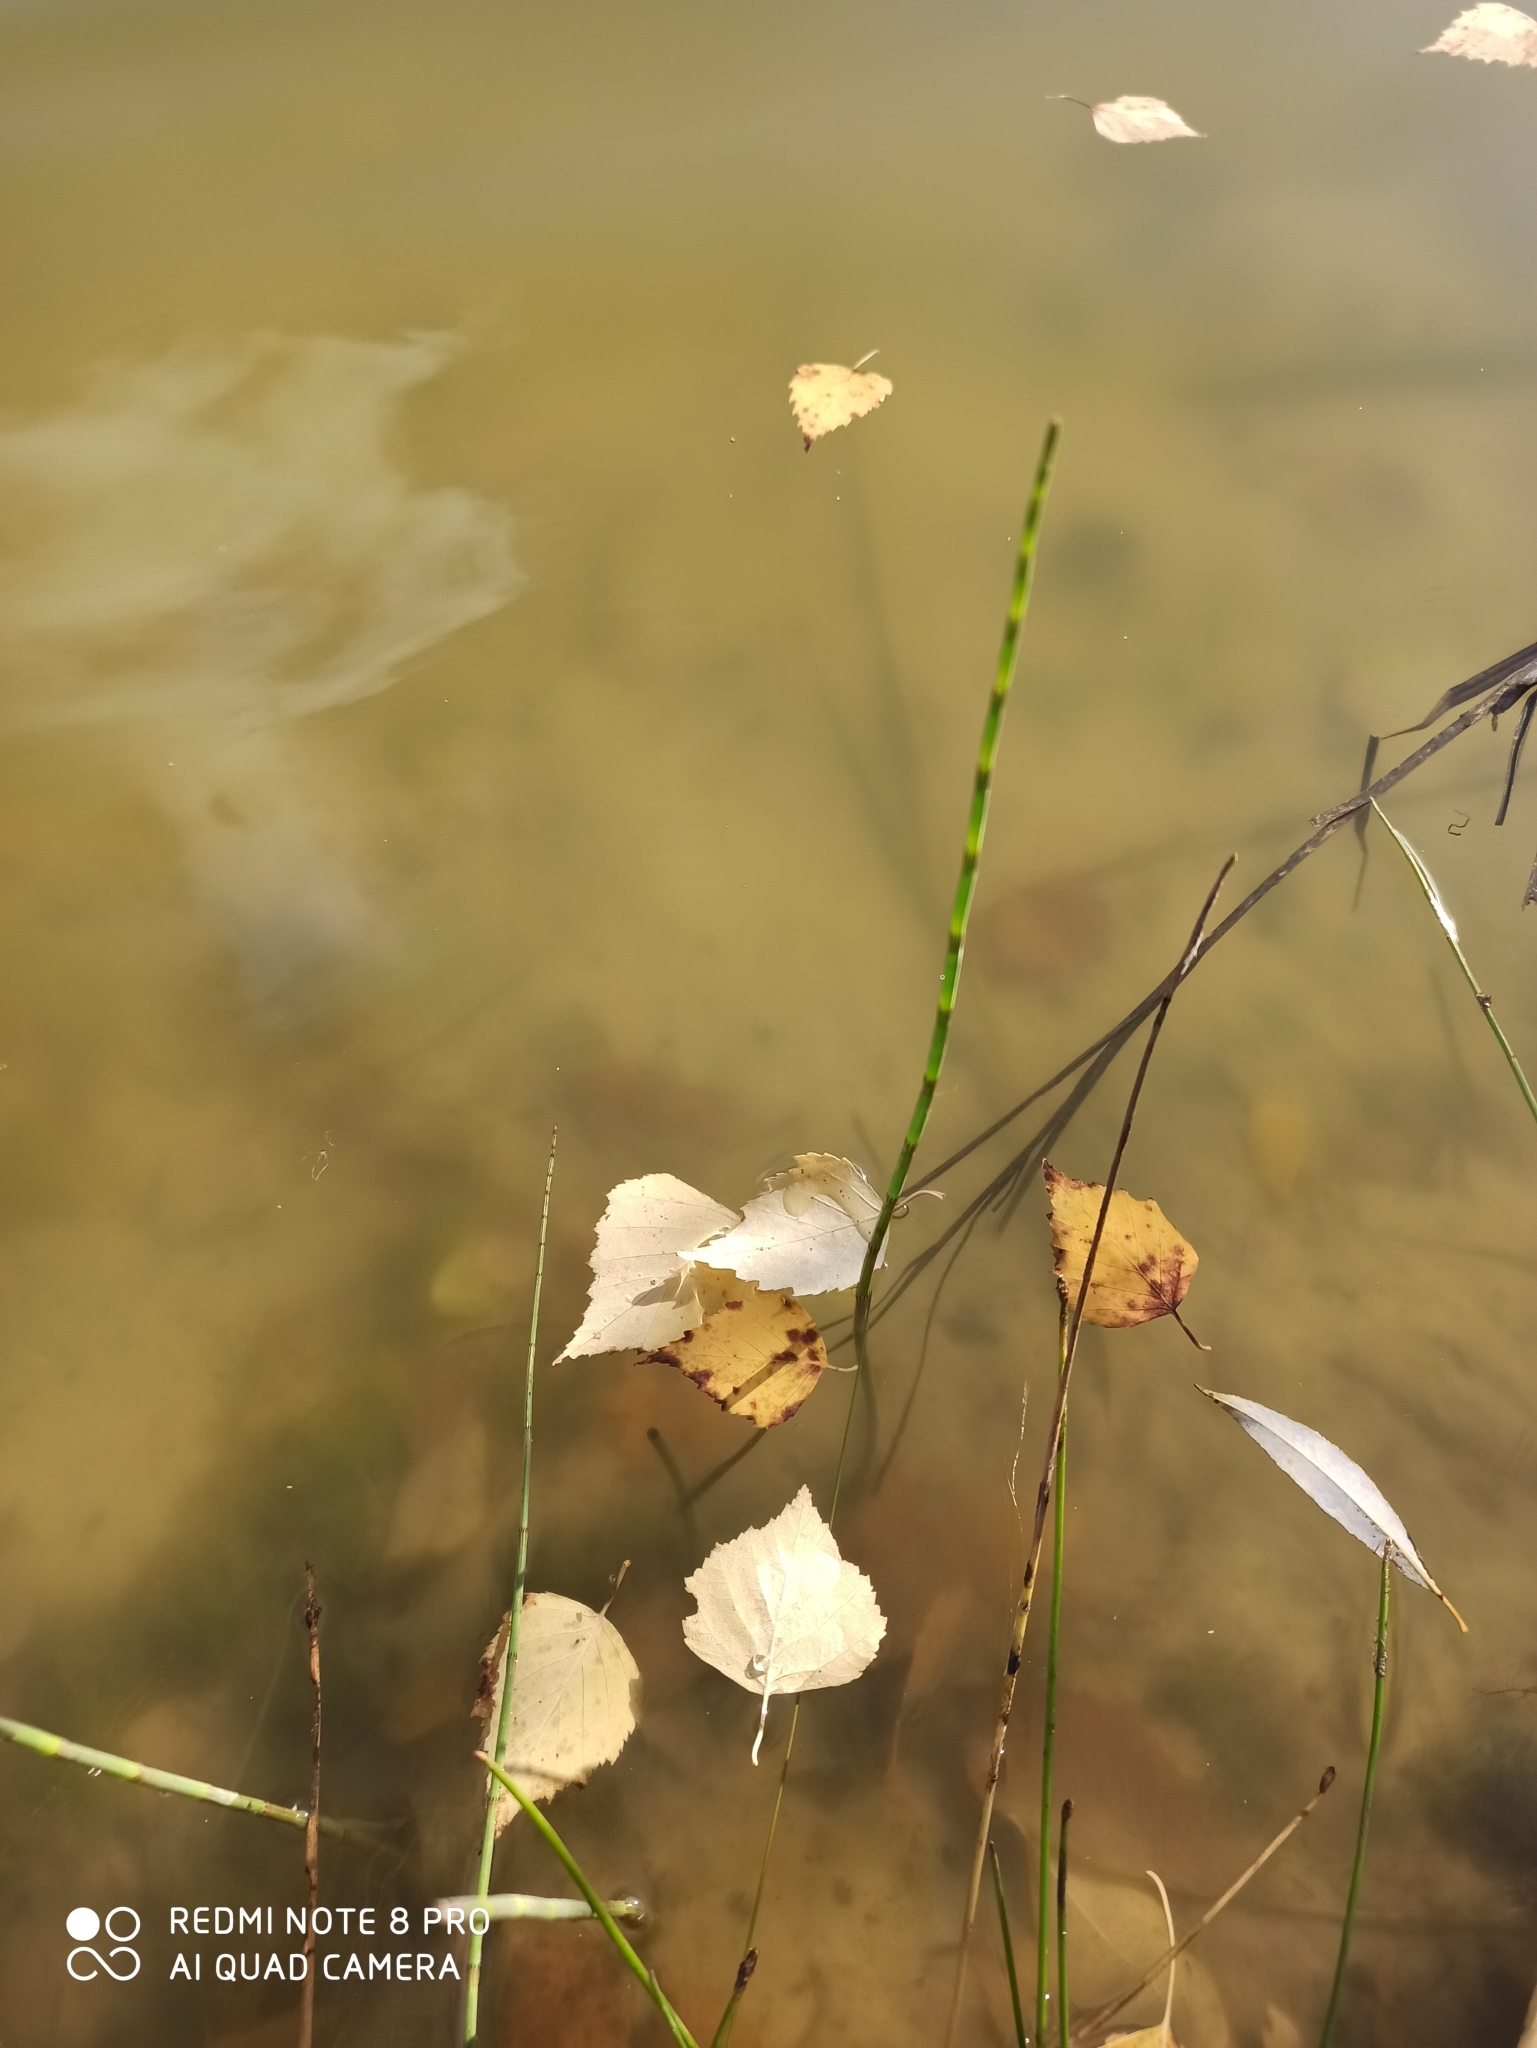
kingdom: Plantae
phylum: Tracheophyta
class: Polypodiopsida
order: Equisetales
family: Equisetaceae
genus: Equisetum
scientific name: Equisetum fluviatile
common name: Water horsetail
